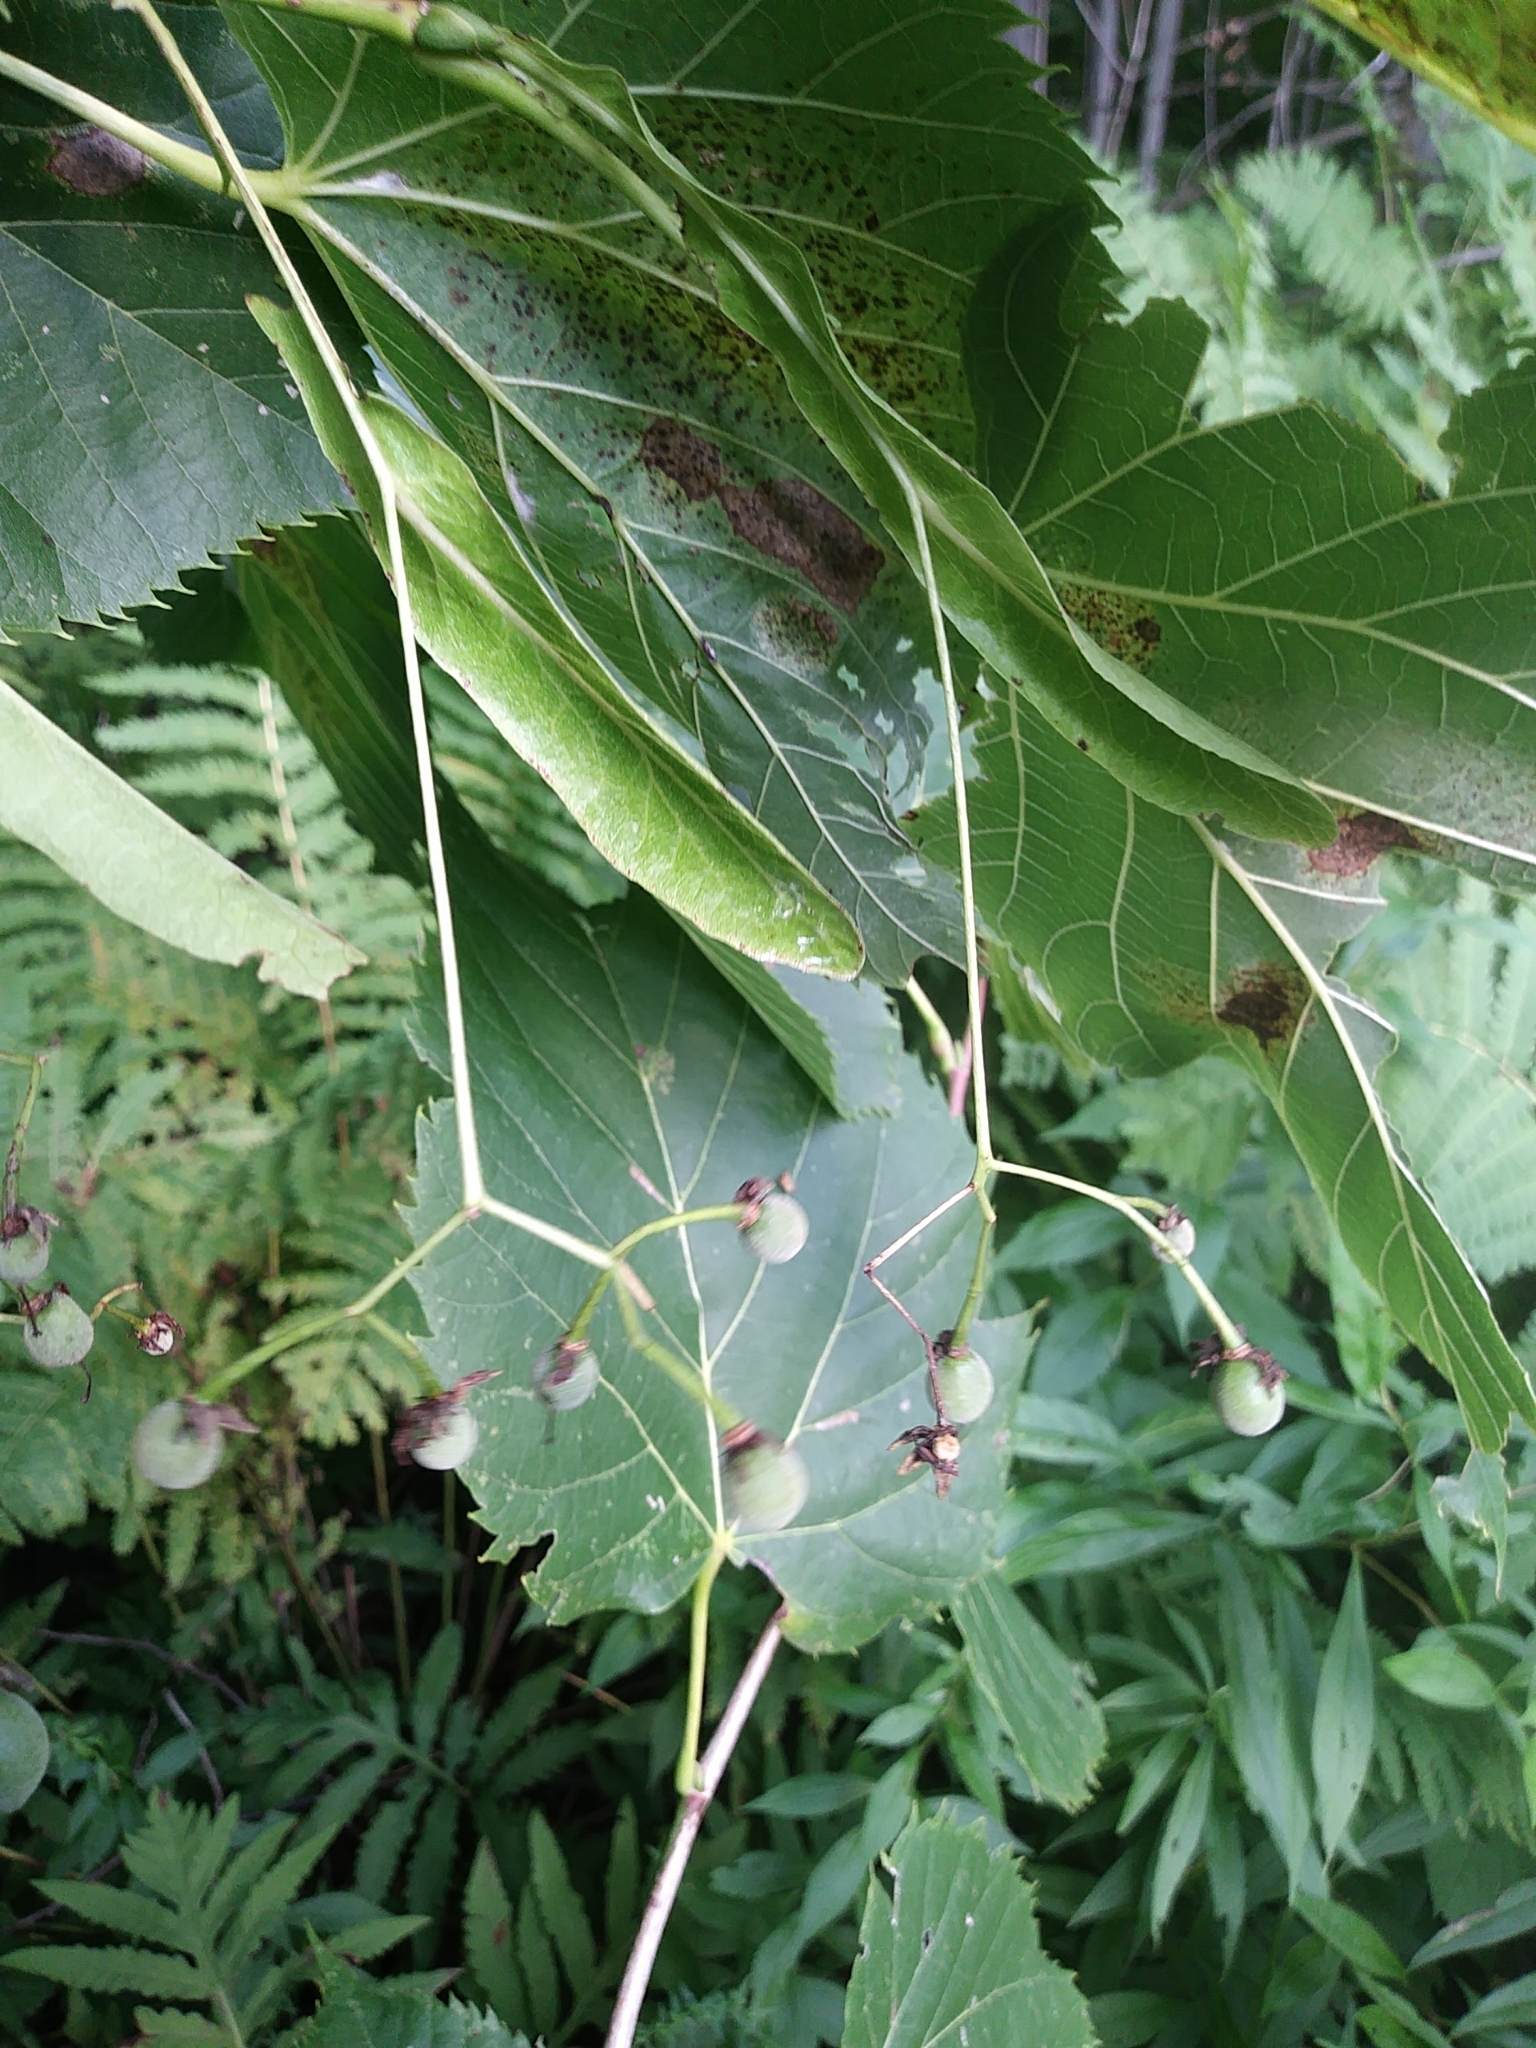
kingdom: Plantae
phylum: Tracheophyta
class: Magnoliopsida
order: Malvales
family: Malvaceae
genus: Tilia
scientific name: Tilia americana
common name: Basswood
